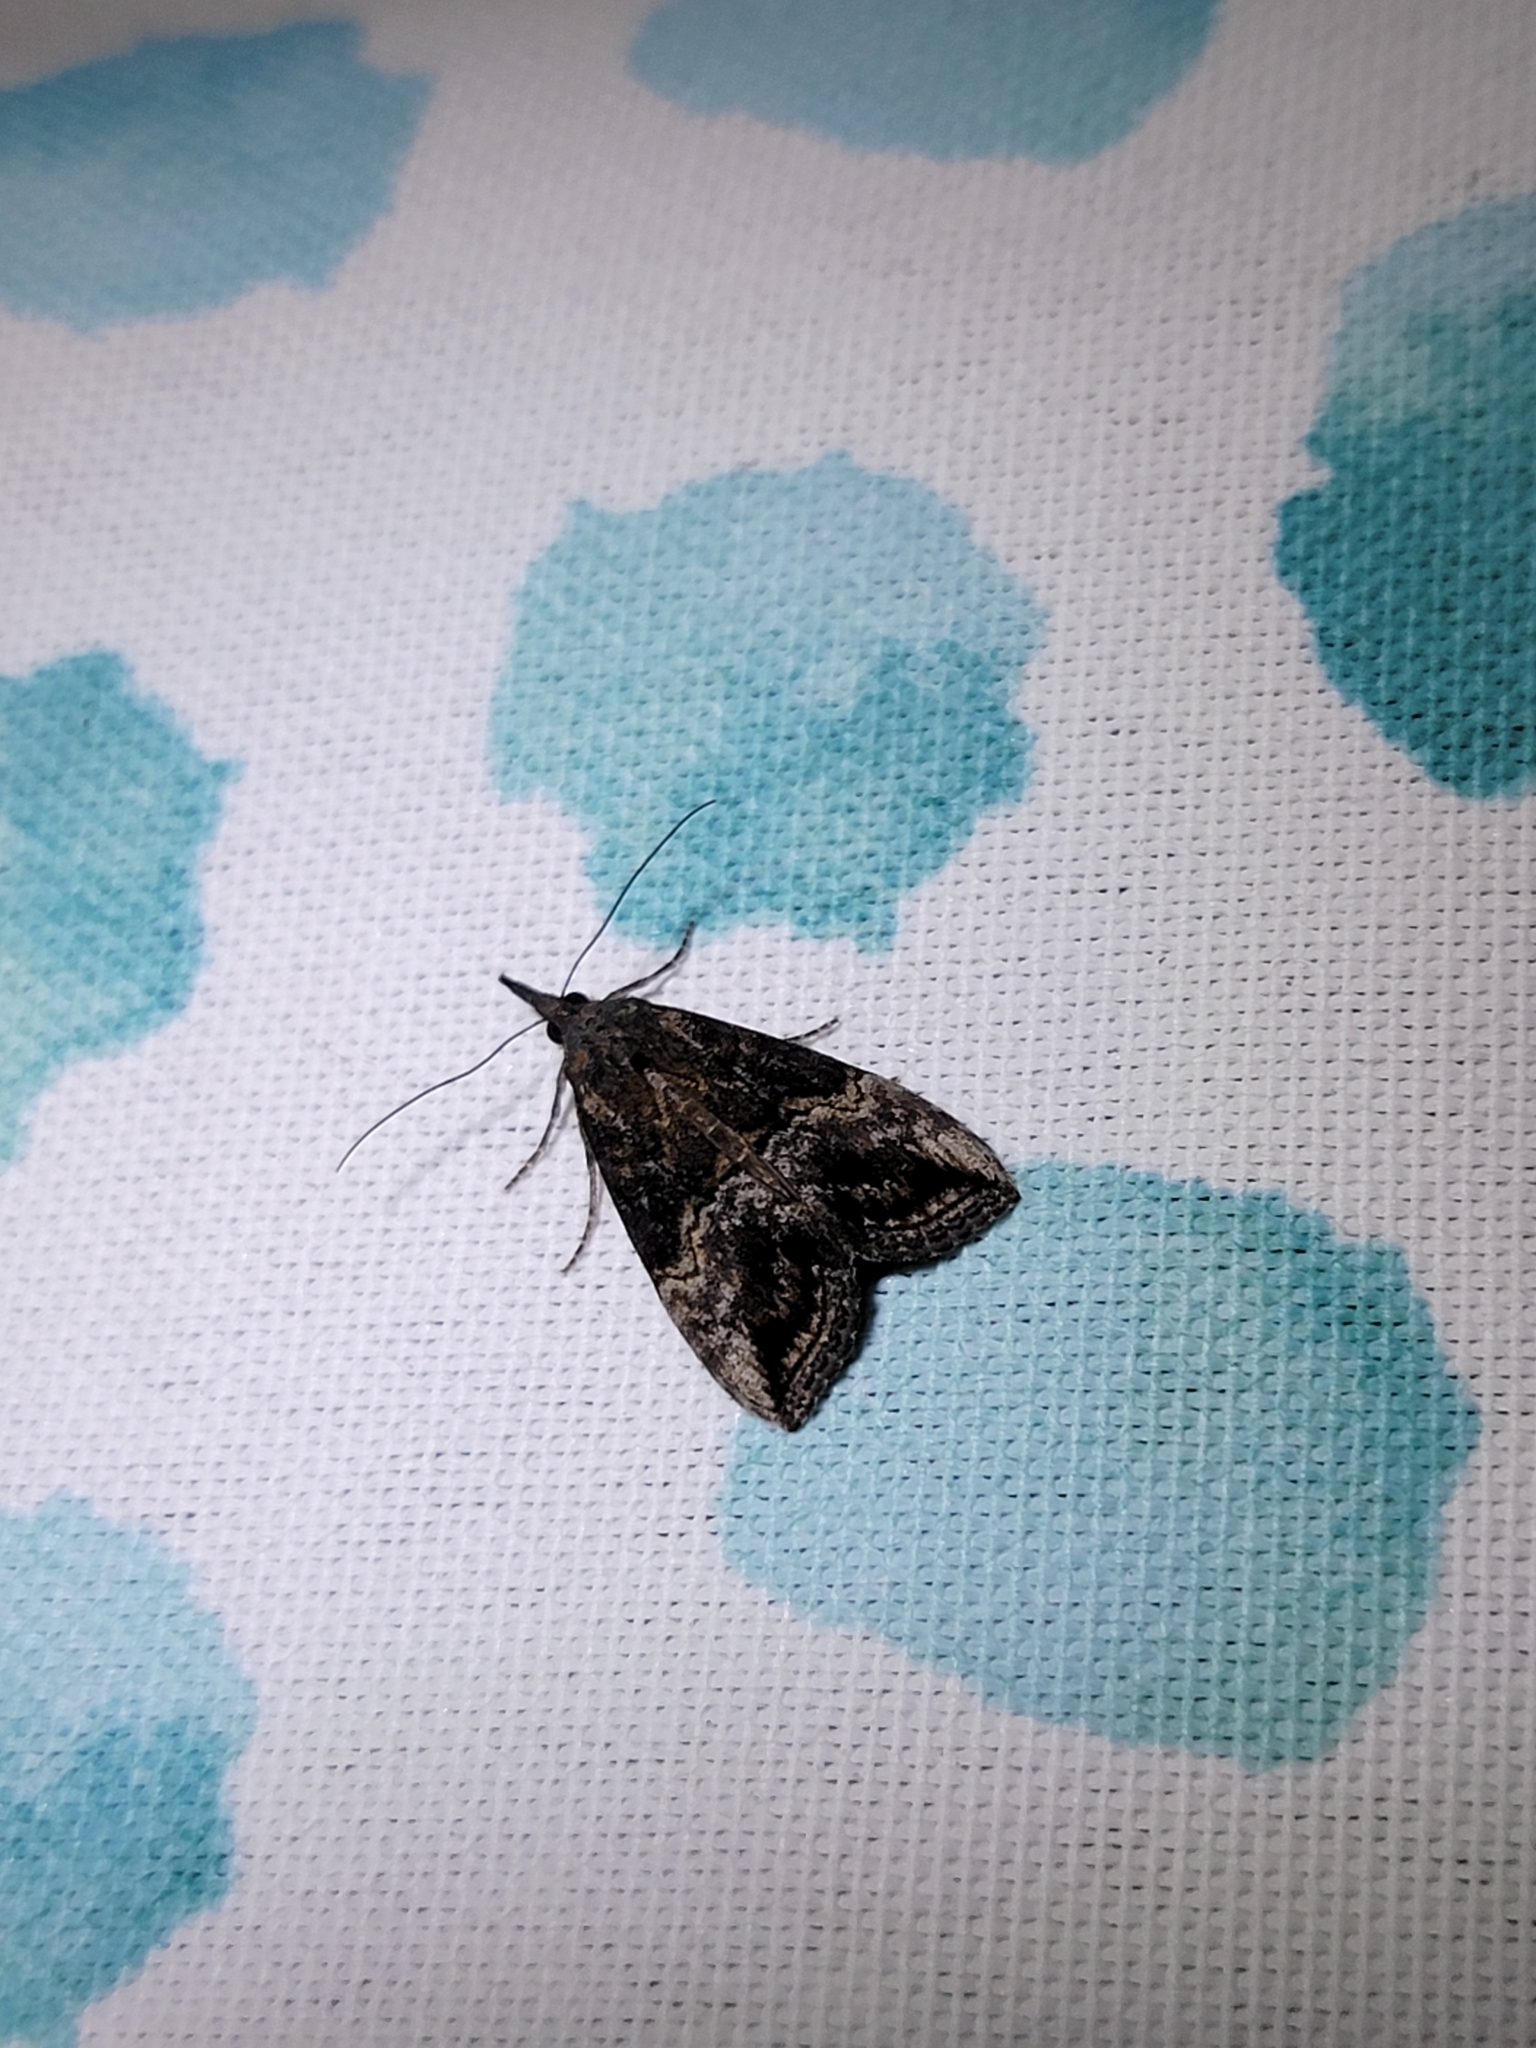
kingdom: Animalia
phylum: Arthropoda
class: Insecta
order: Lepidoptera
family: Erebidae
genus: Hypena
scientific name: Hypena scabra
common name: Green cloverworm
